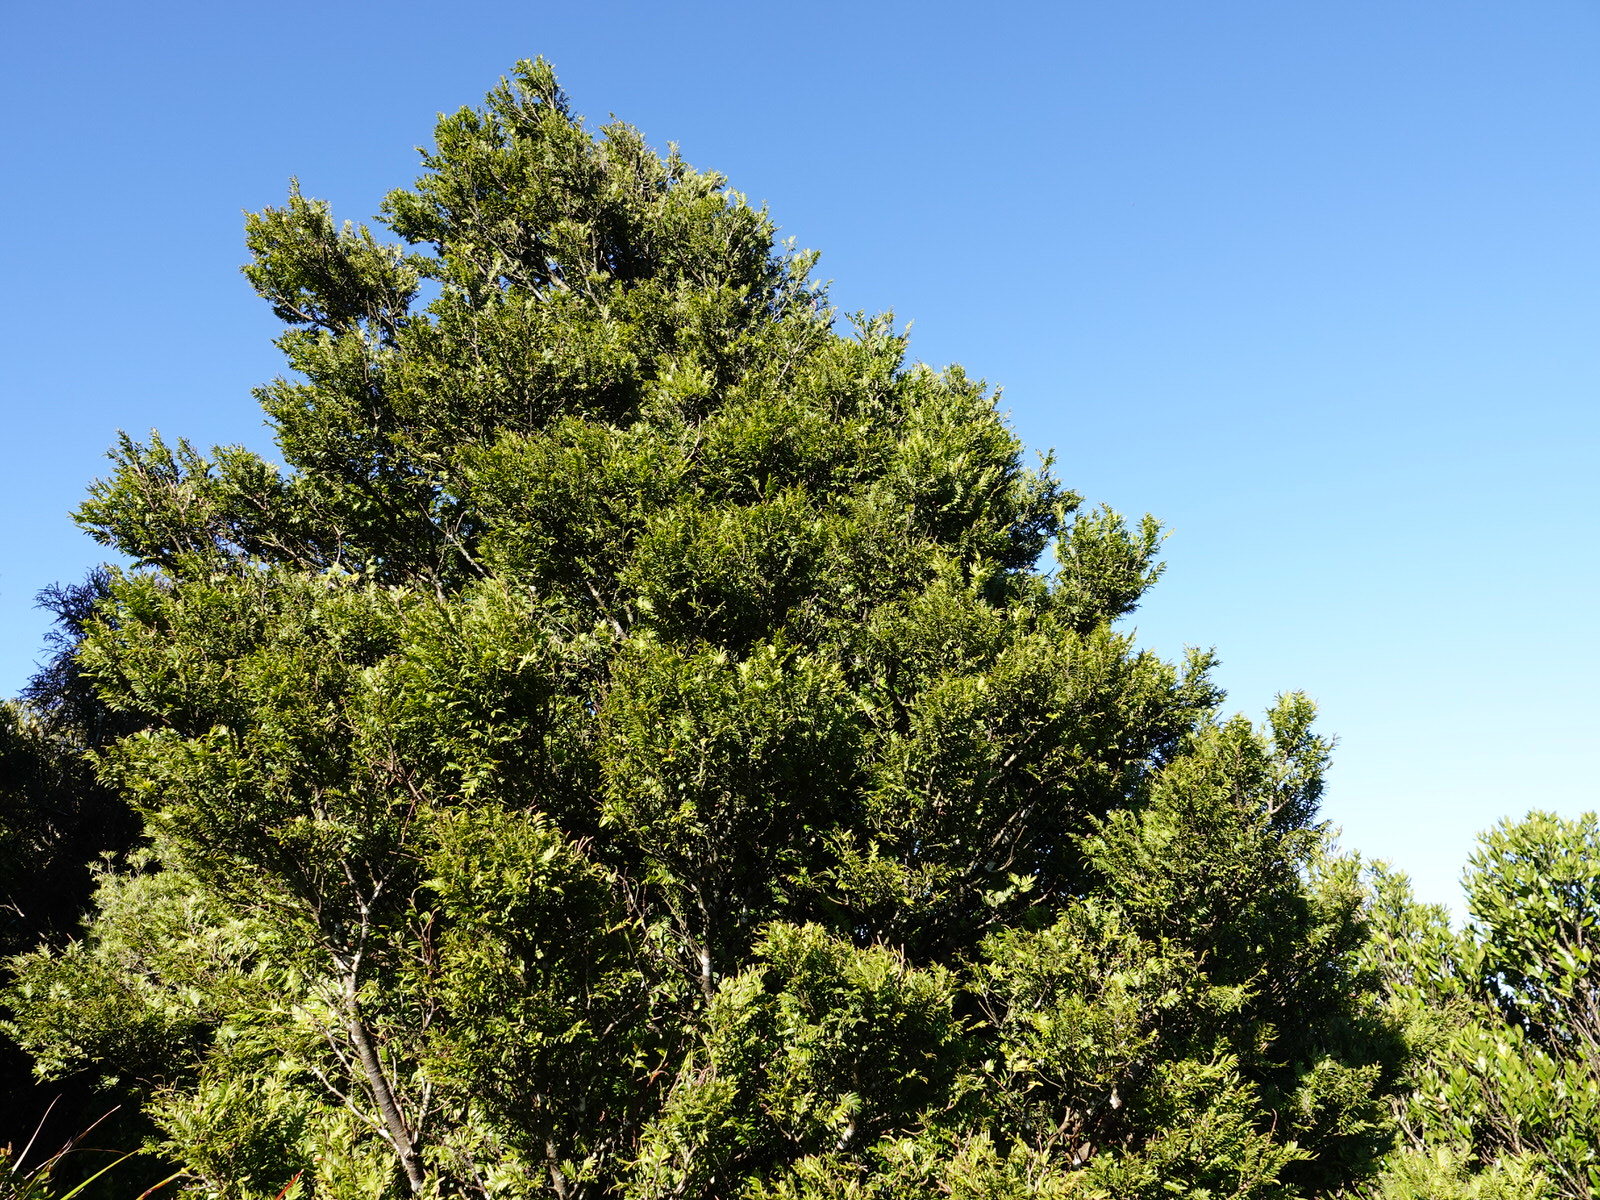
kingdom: Plantae
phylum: Tracheophyta
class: Pinopsida
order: Pinales
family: Podocarpaceae
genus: Prumnopitys
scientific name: Prumnopitys ferruginea
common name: Brown pine
